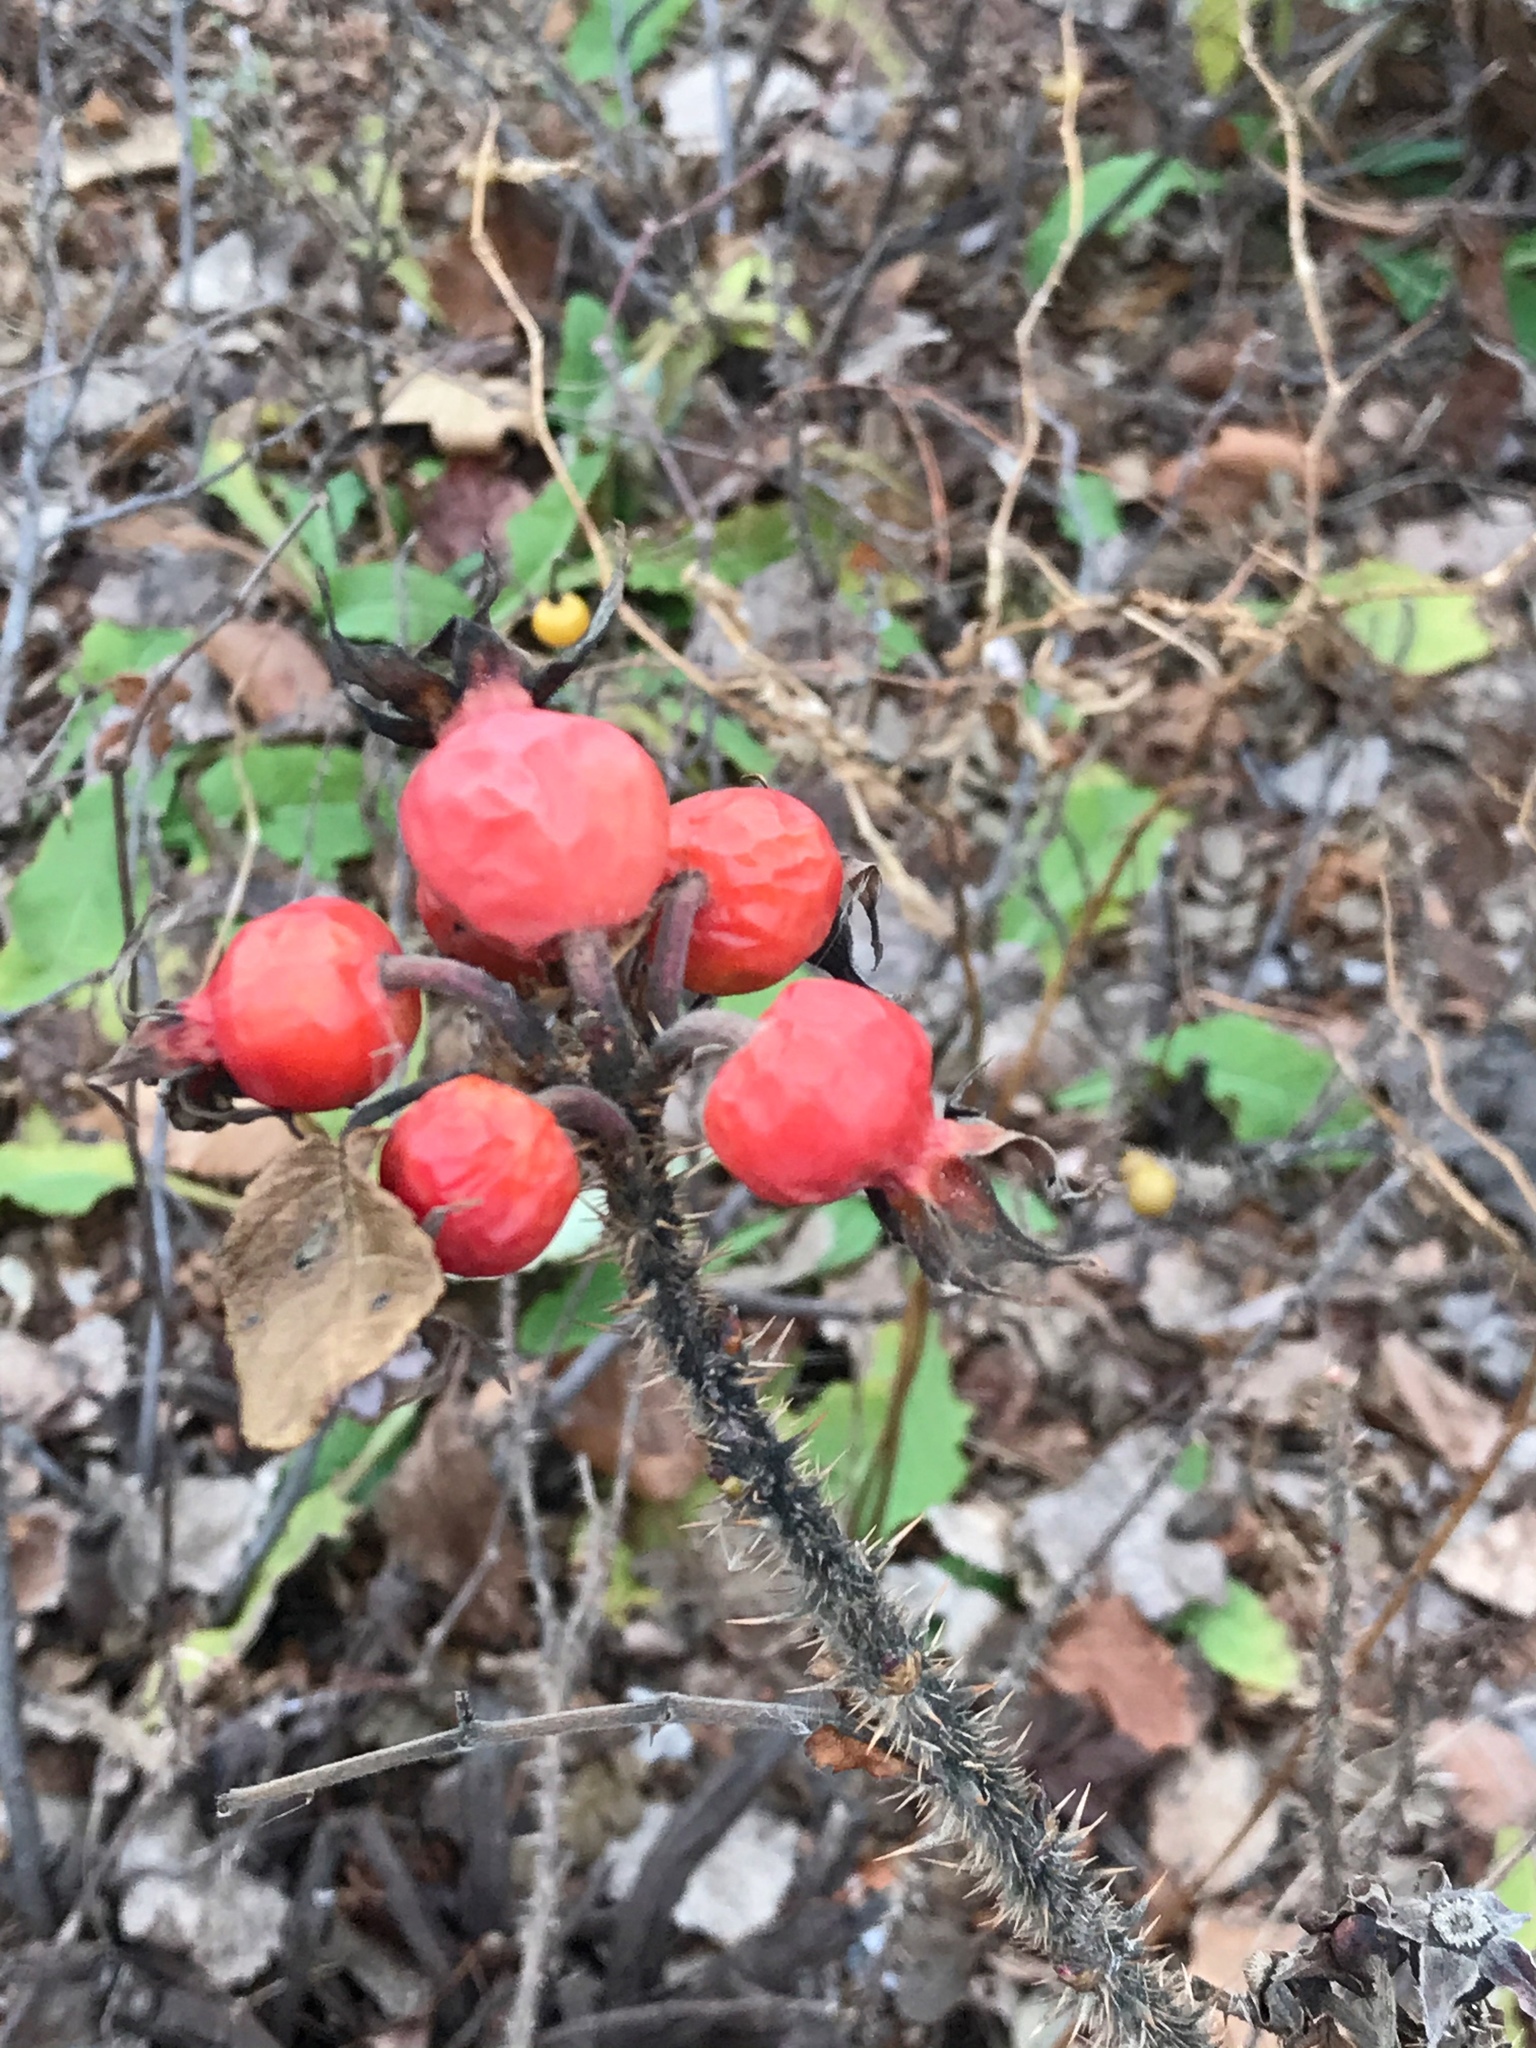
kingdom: Plantae
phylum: Tracheophyta
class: Magnoliopsida
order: Rosales
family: Rosaceae
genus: Rosa
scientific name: Rosa rugosa
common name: Japanese rose
